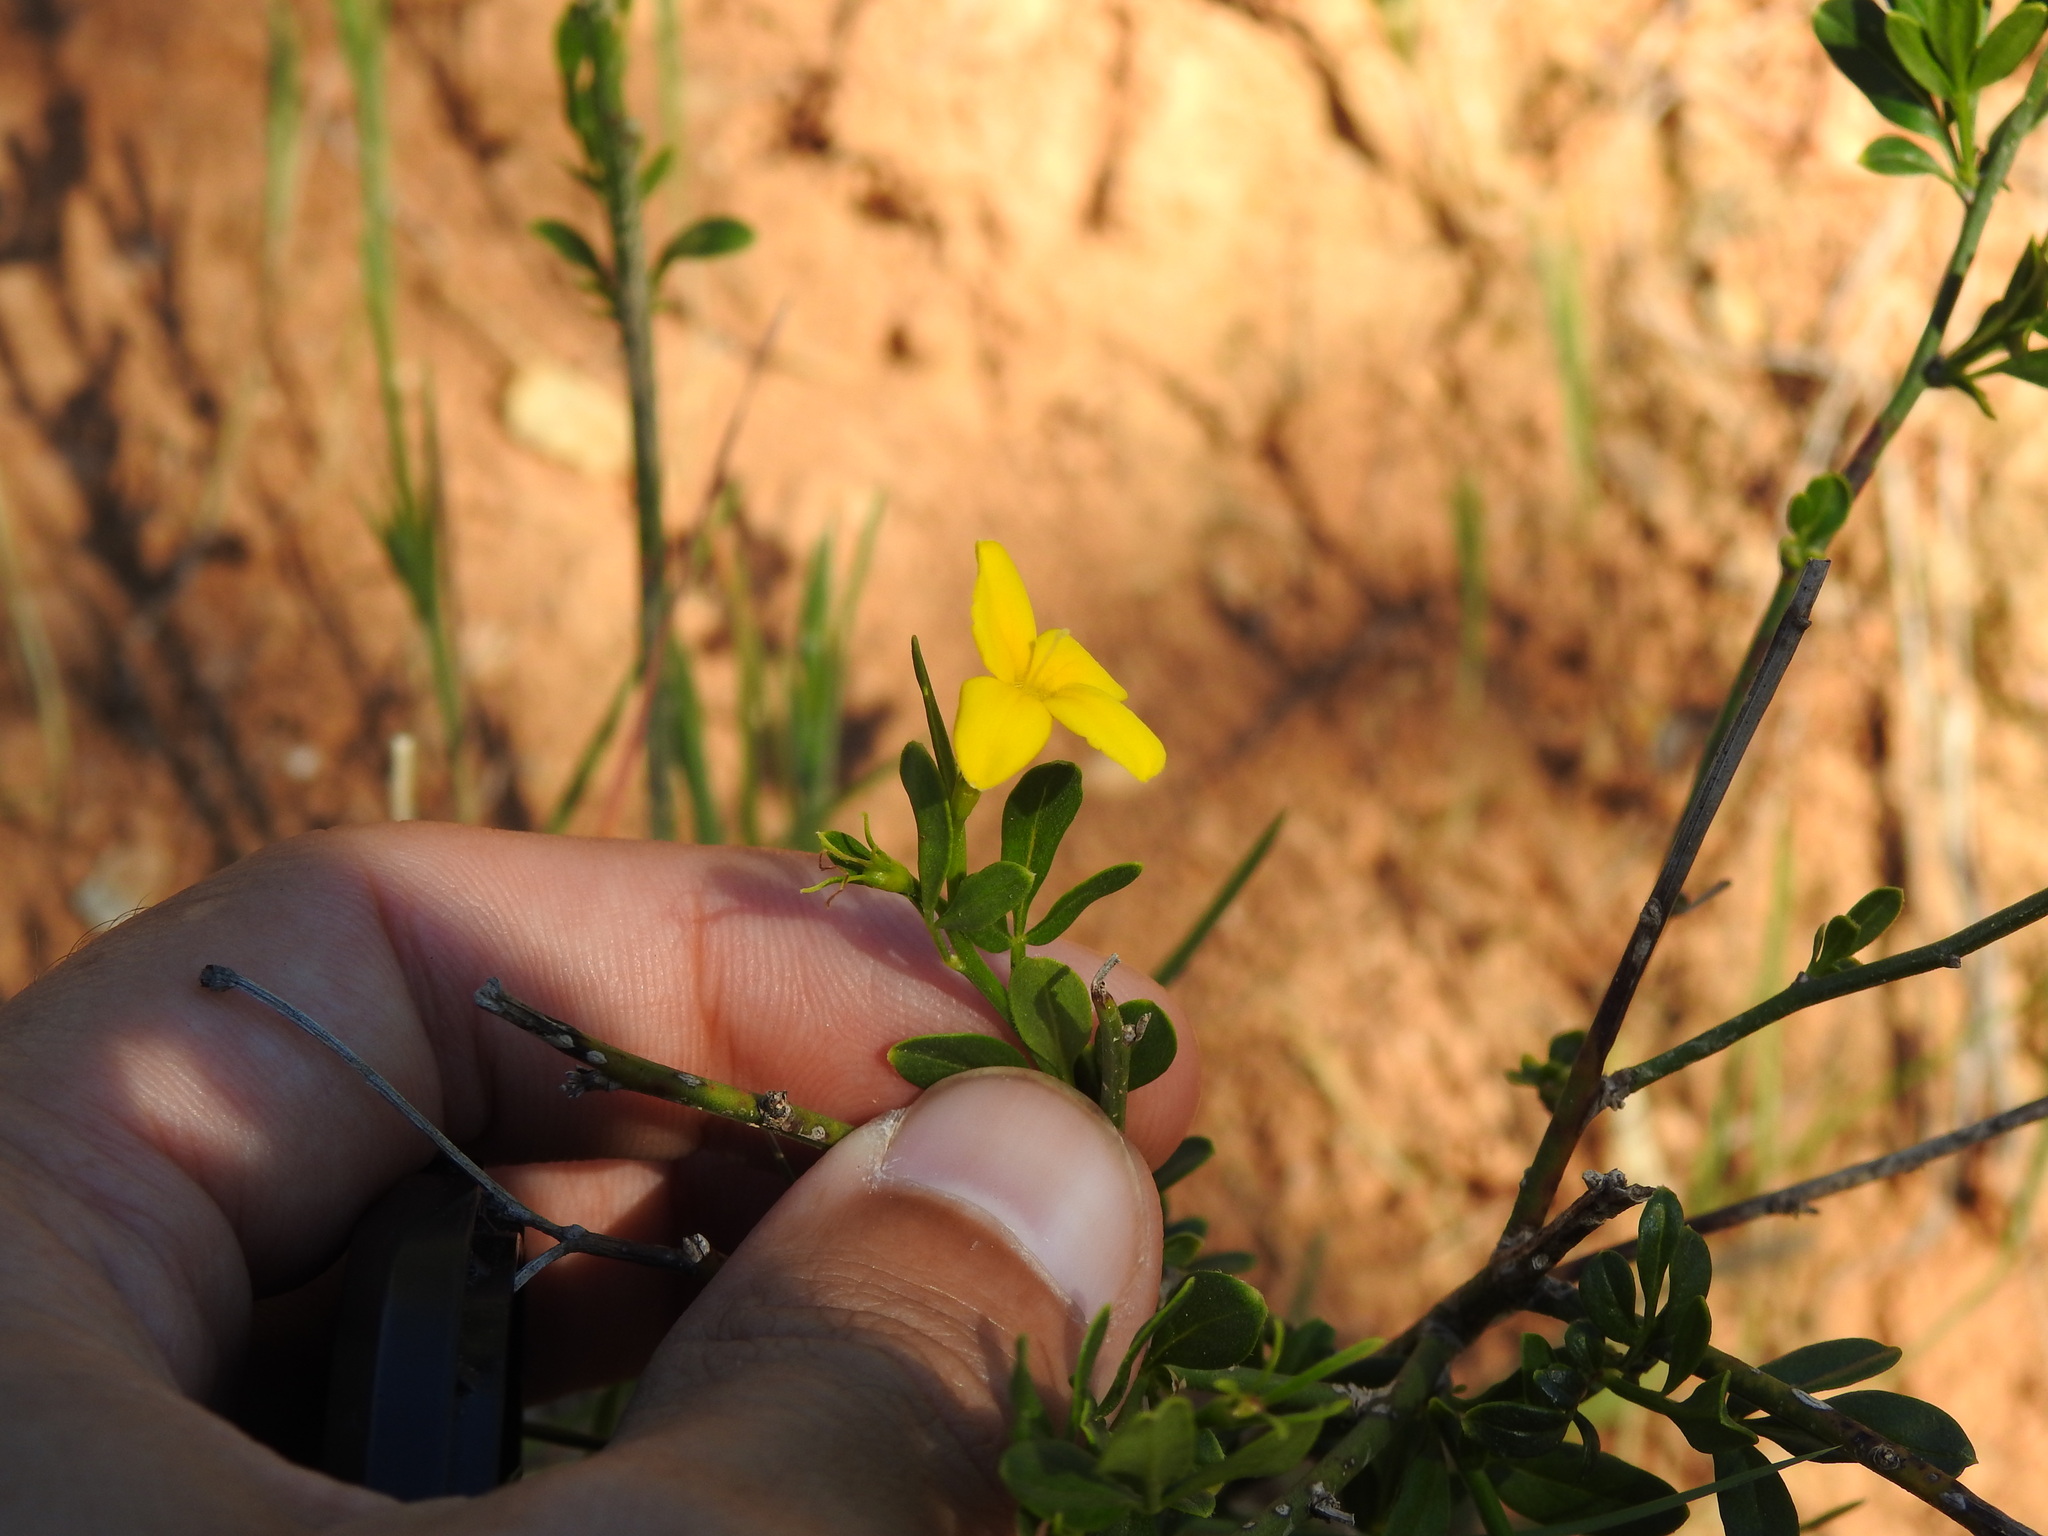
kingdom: Plantae
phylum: Tracheophyta
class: Magnoliopsida
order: Lamiales
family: Oleaceae
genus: Chrysojasminum
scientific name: Chrysojasminum fruticans
